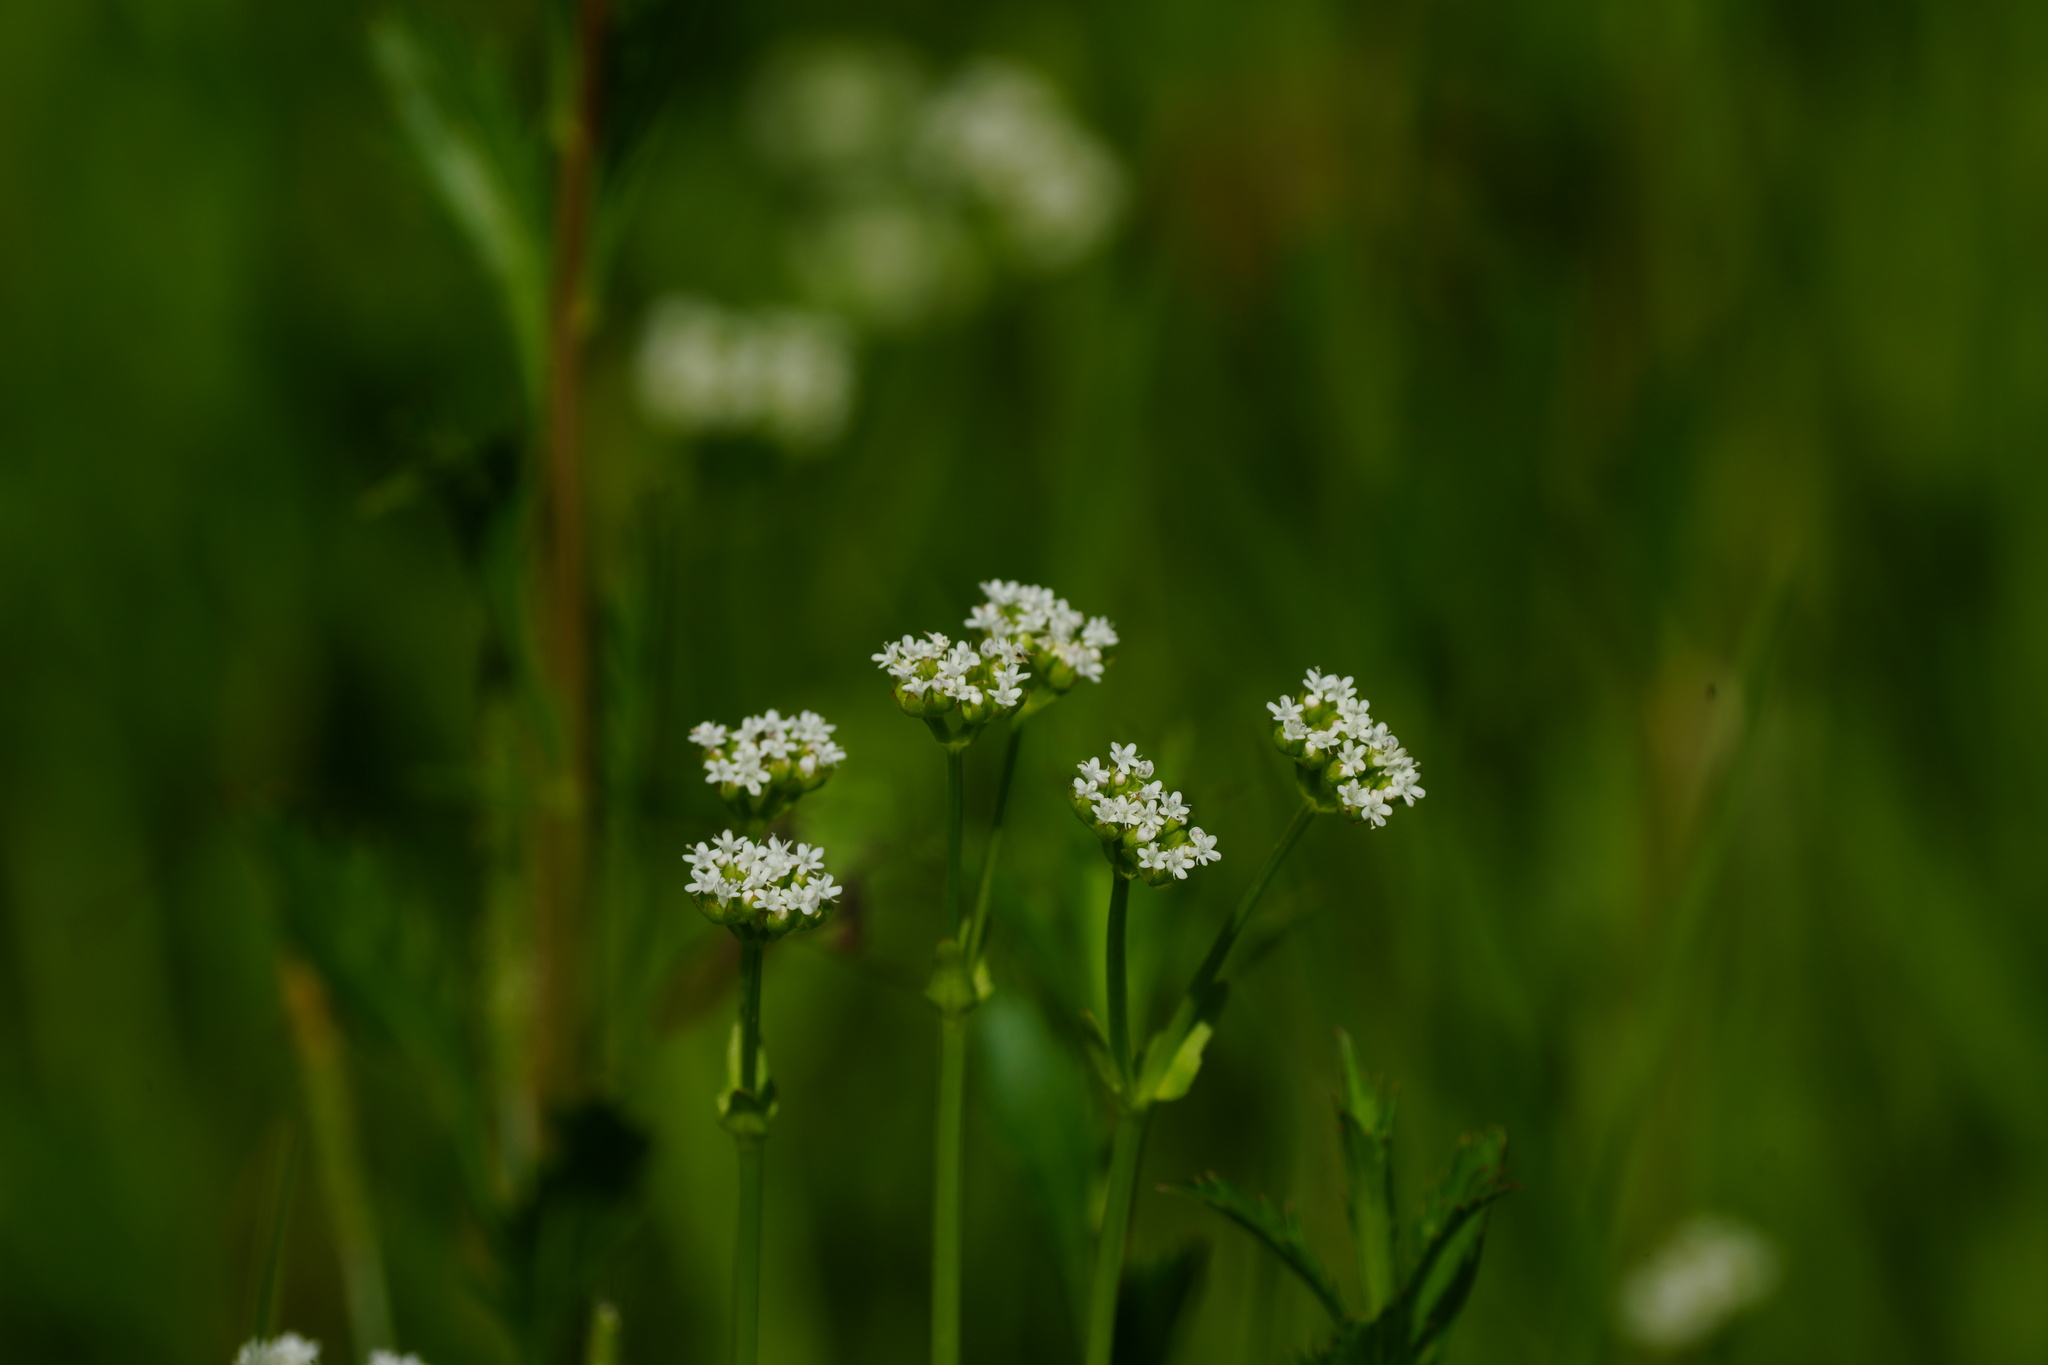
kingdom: Plantae
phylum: Tracheophyta
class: Magnoliopsida
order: Dipsacales
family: Caprifoliaceae
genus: Valerianella
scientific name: Valerianella radiata
